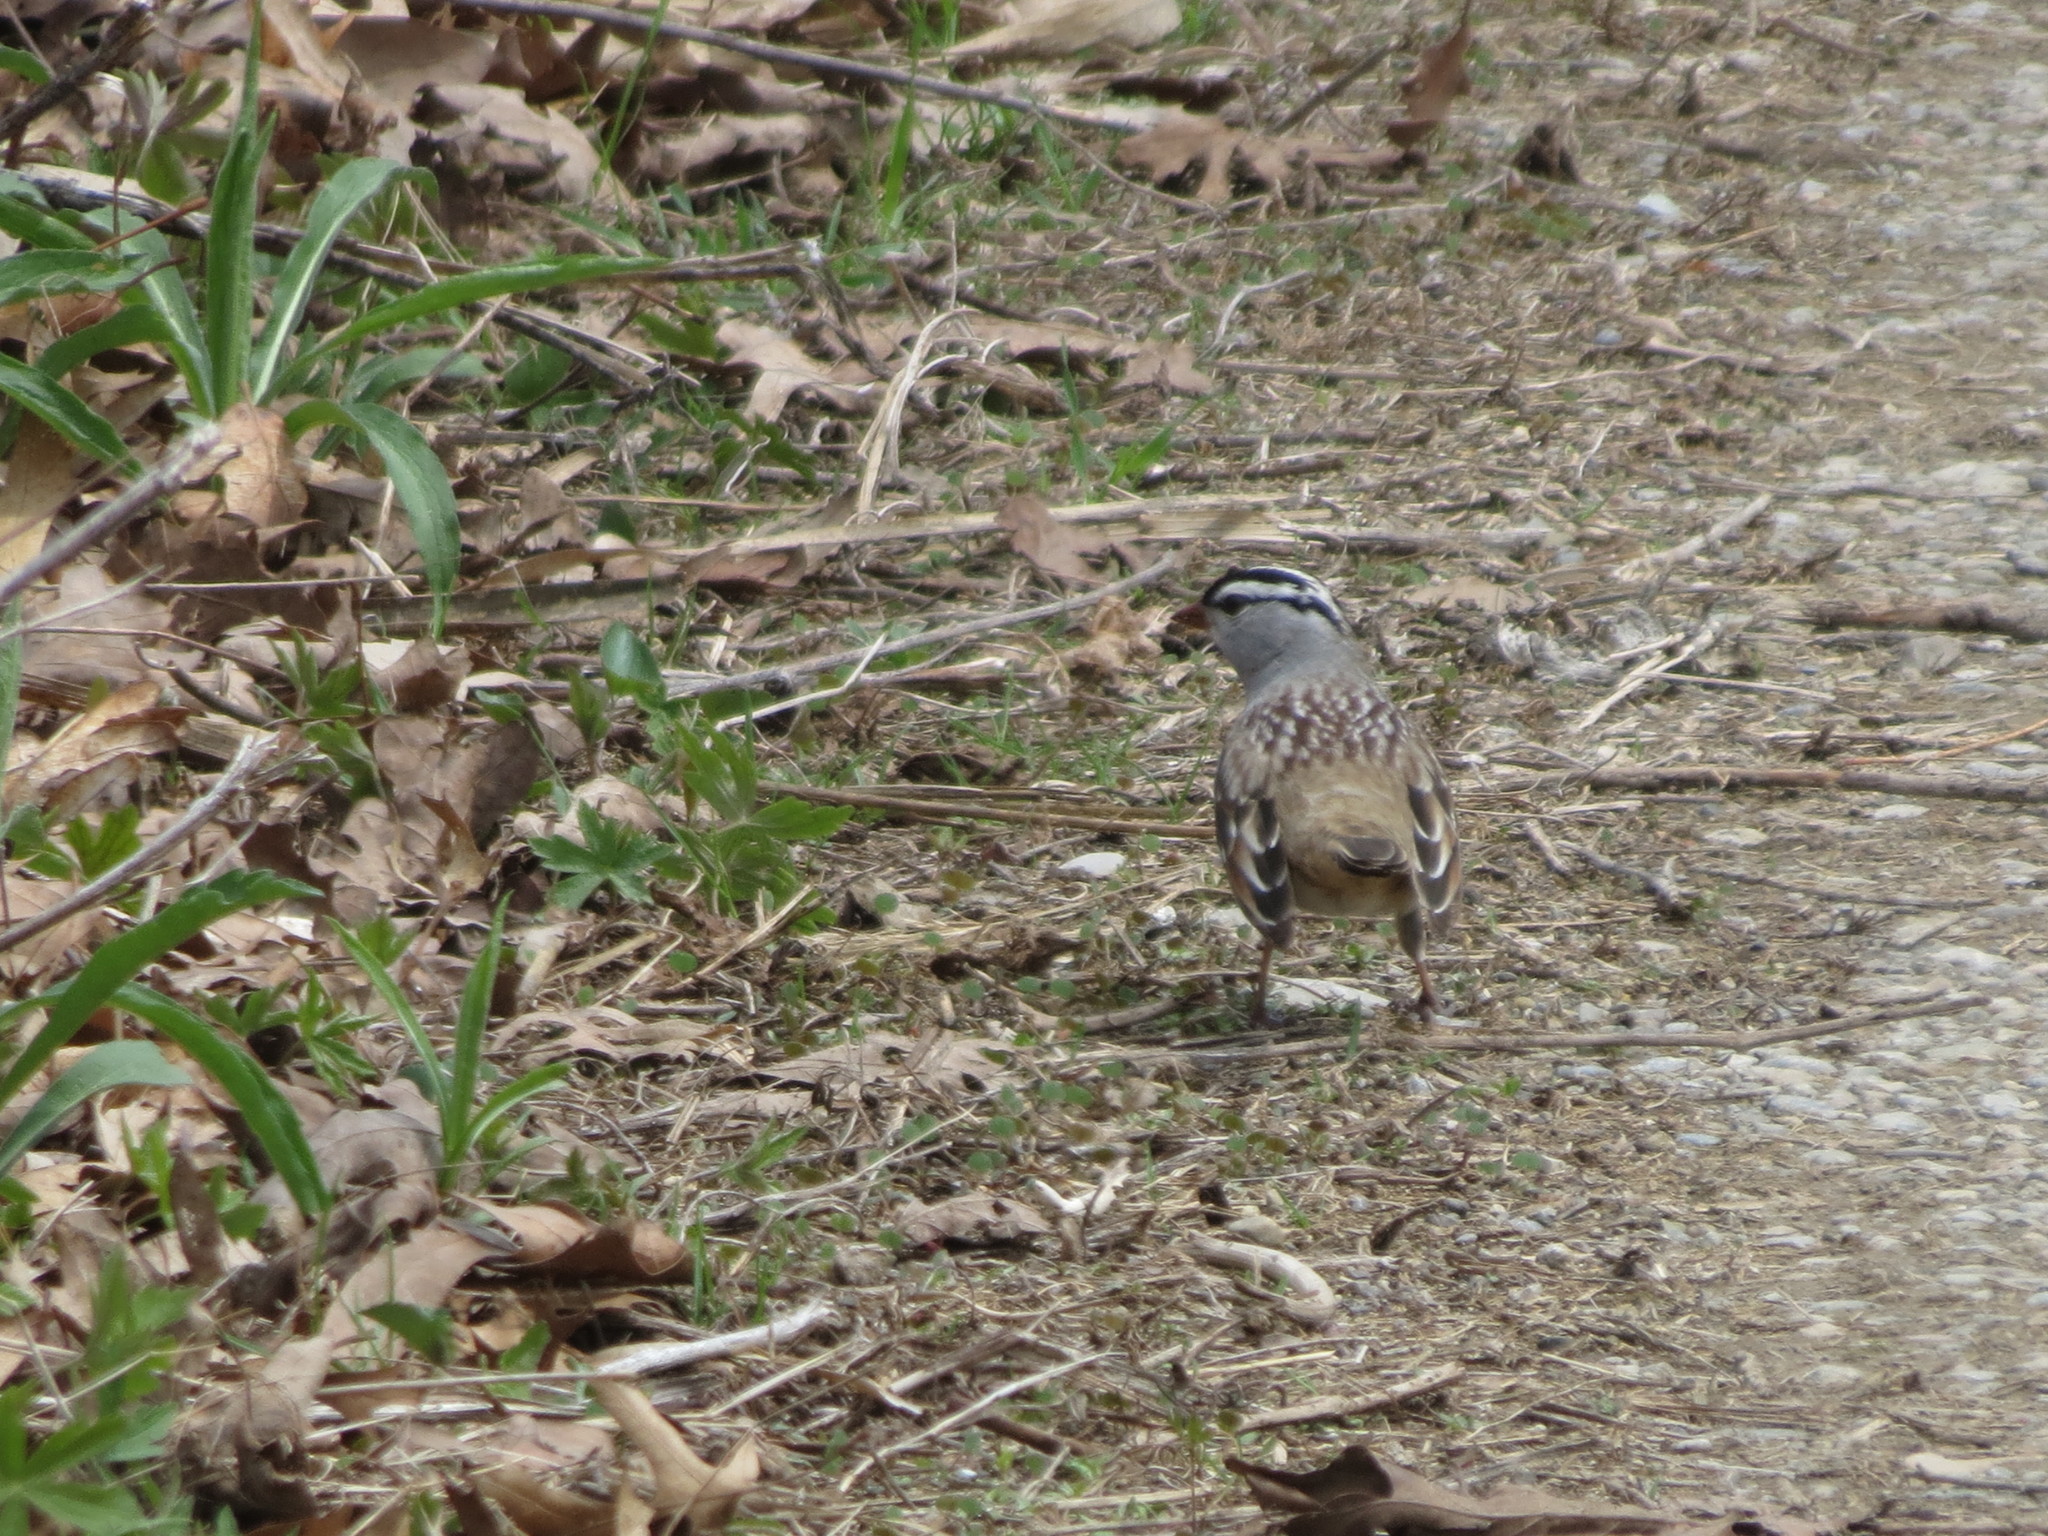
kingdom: Animalia
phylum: Chordata
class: Aves
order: Passeriformes
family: Passerellidae
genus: Zonotrichia
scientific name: Zonotrichia leucophrys
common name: White-crowned sparrow
